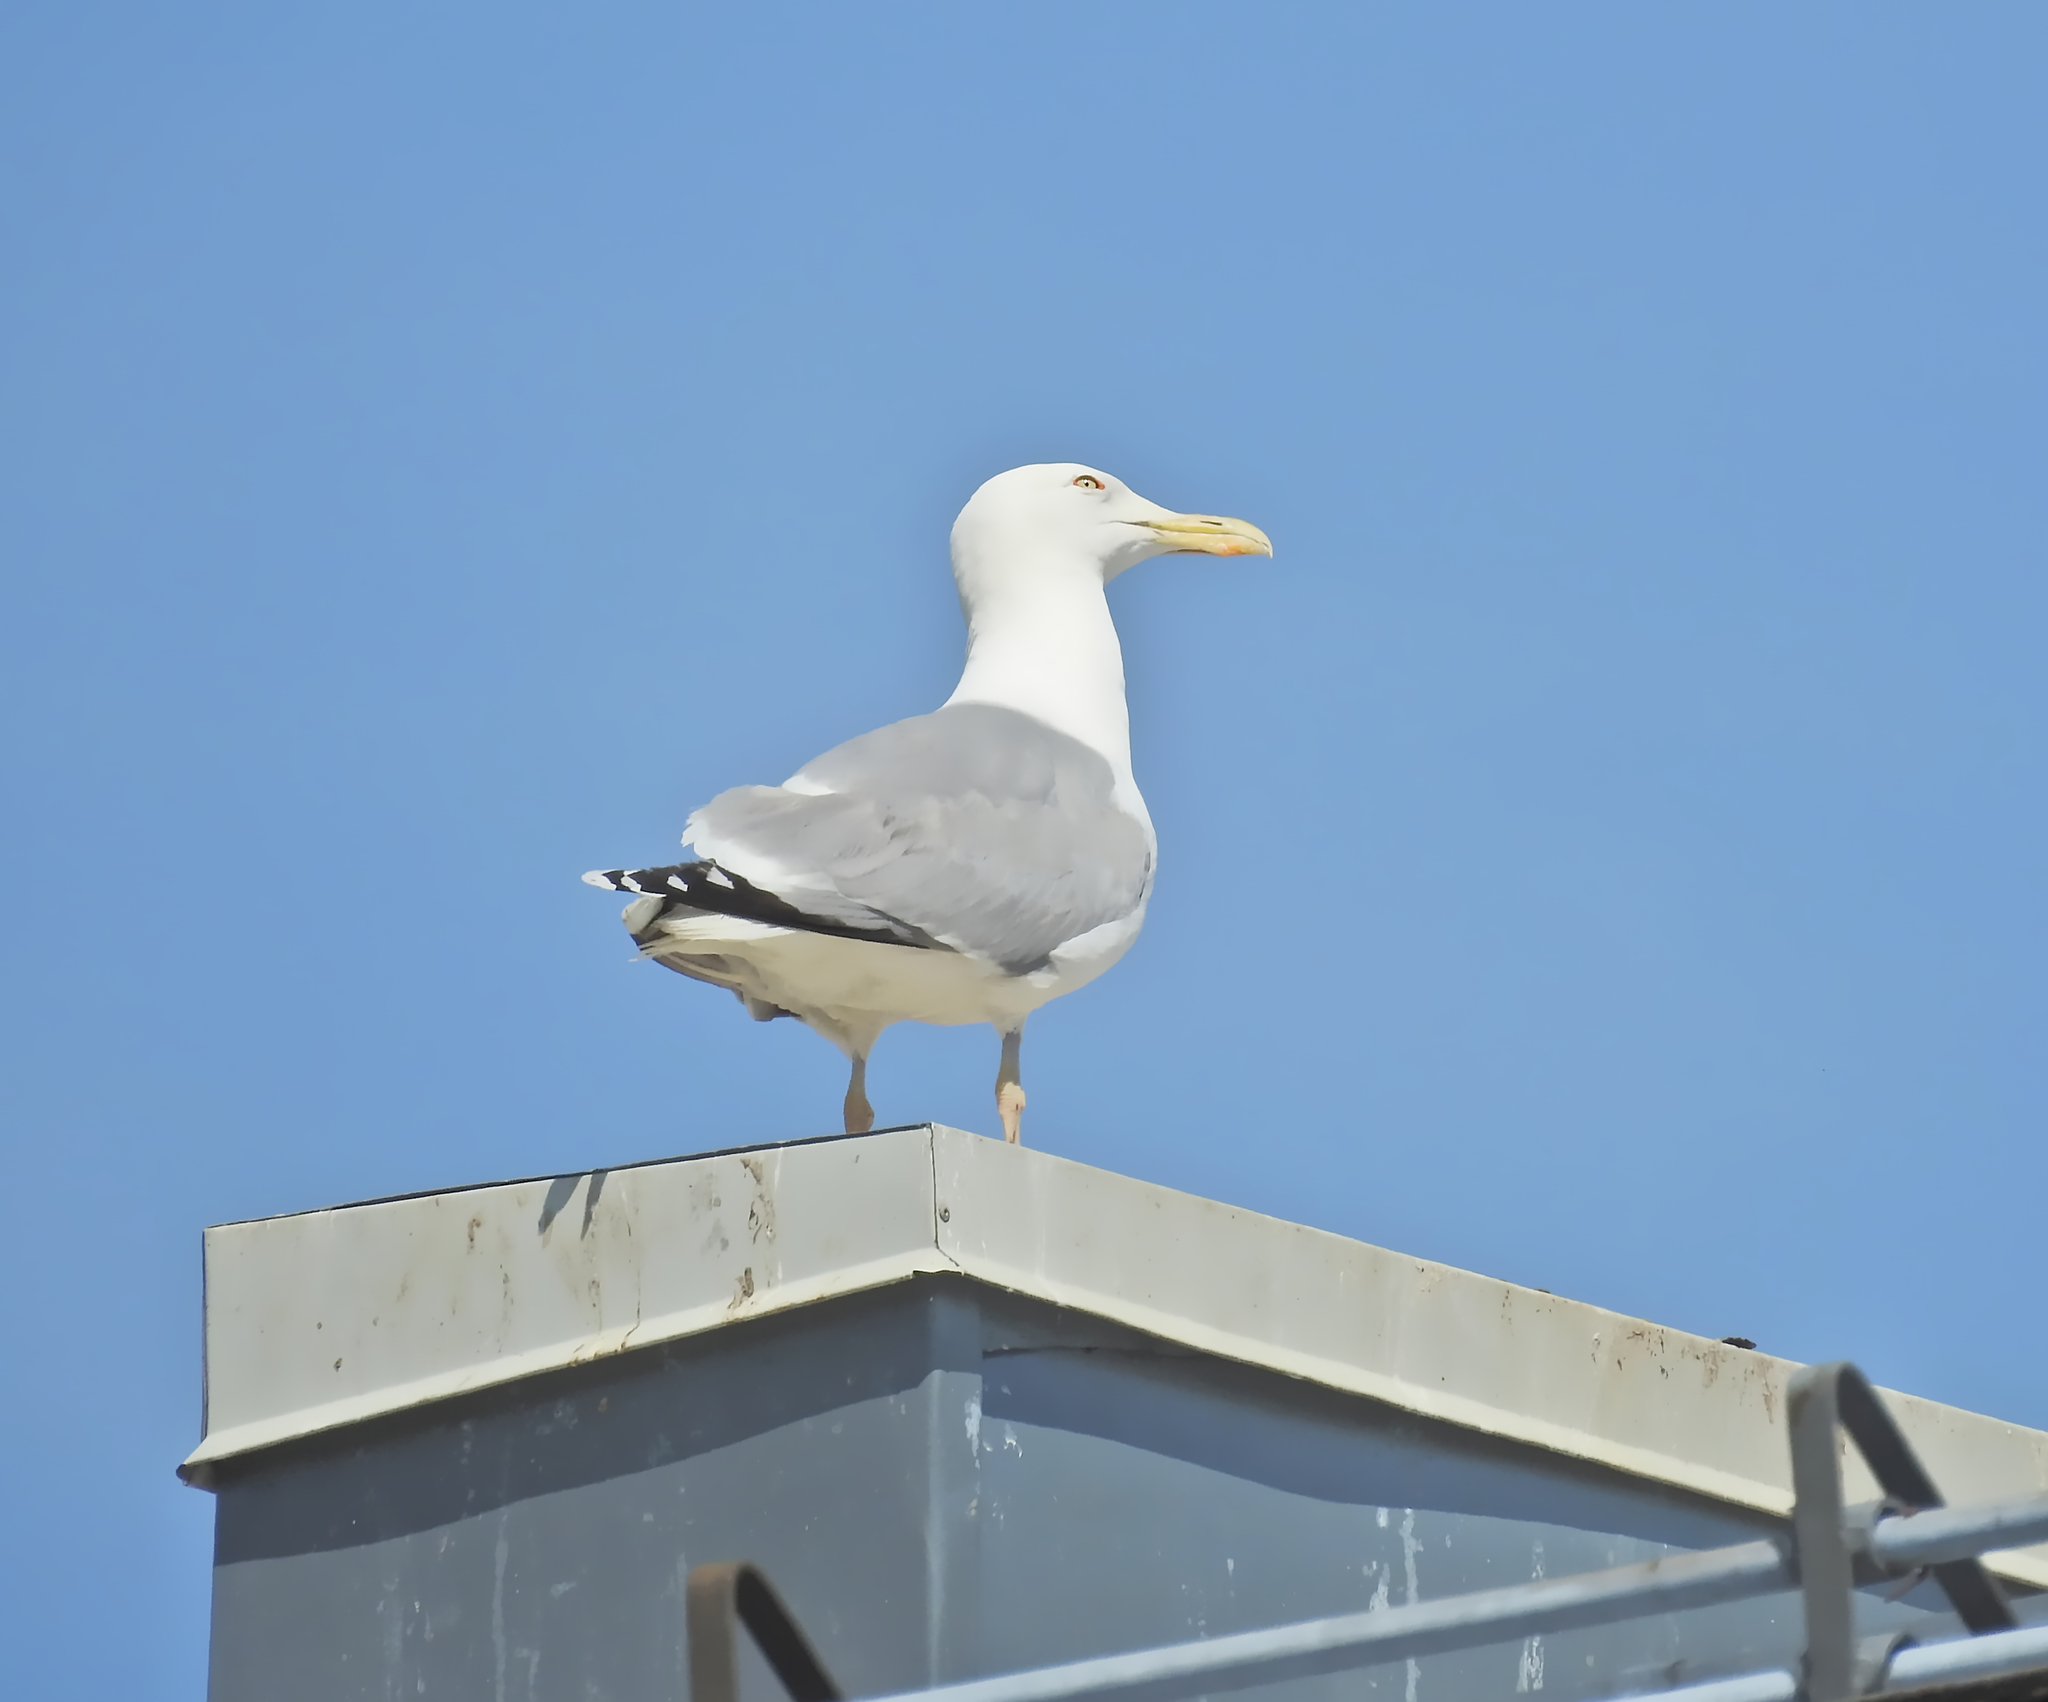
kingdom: Animalia
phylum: Chordata
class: Aves
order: Charadriiformes
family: Laridae
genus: Larus
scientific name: Larus argentatus
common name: Herring gull
